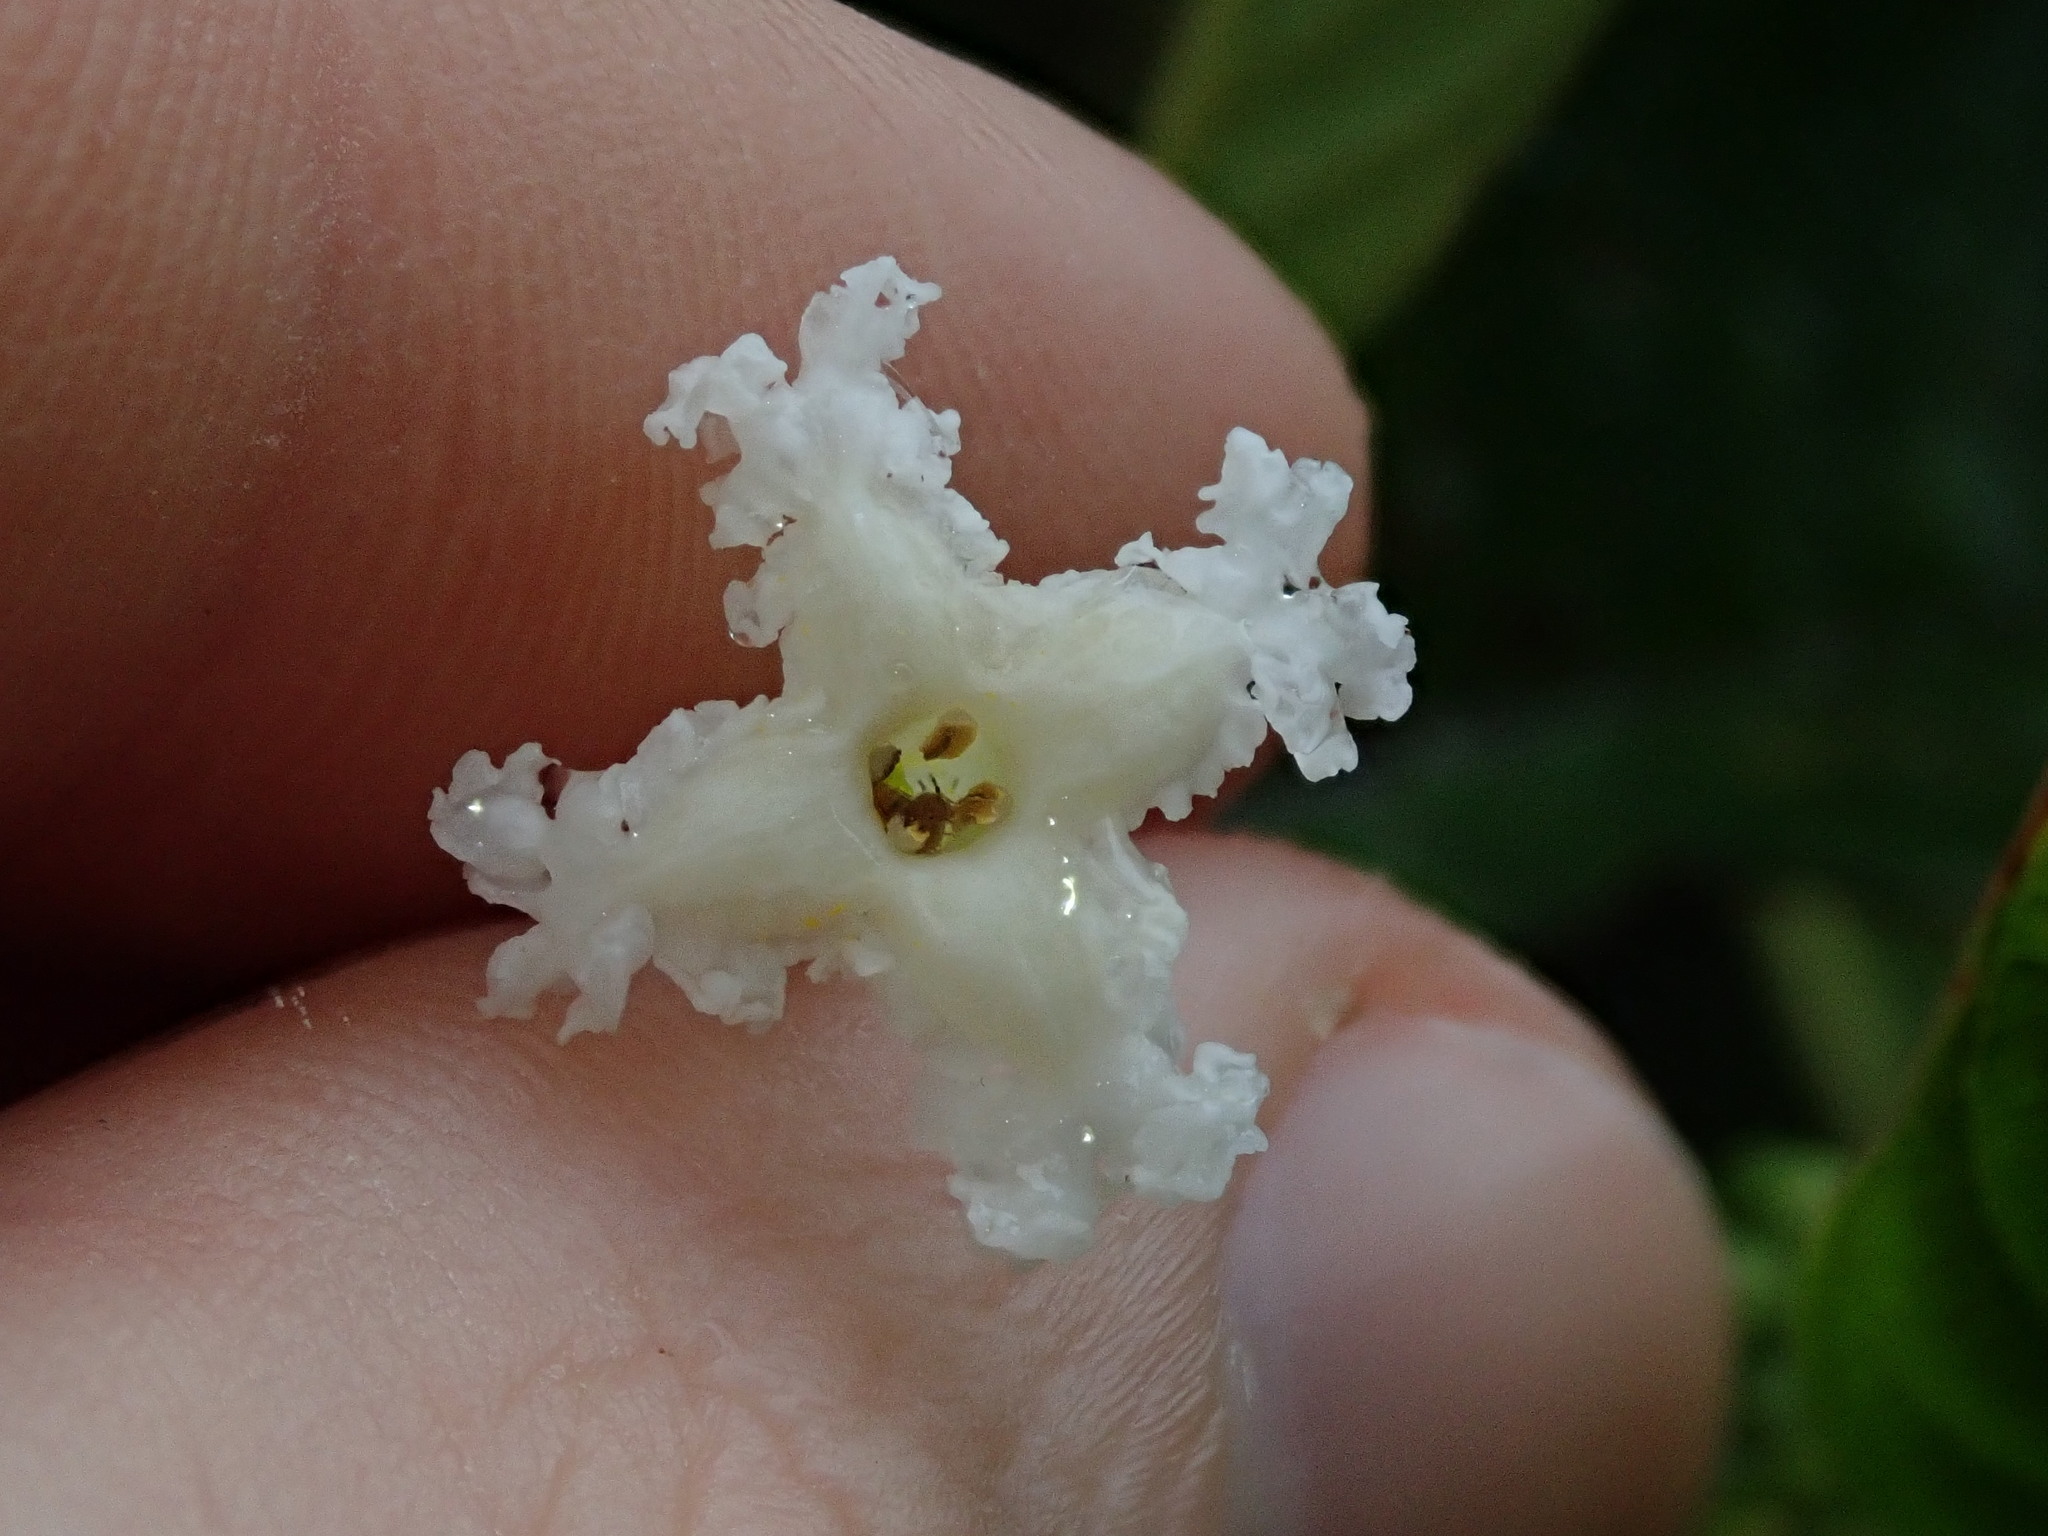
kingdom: Plantae
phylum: Tracheophyta
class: Magnoliopsida
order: Gentianales
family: Rubiaceae
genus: Tournefortiopsis
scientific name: Tournefortiopsis crispiflora
